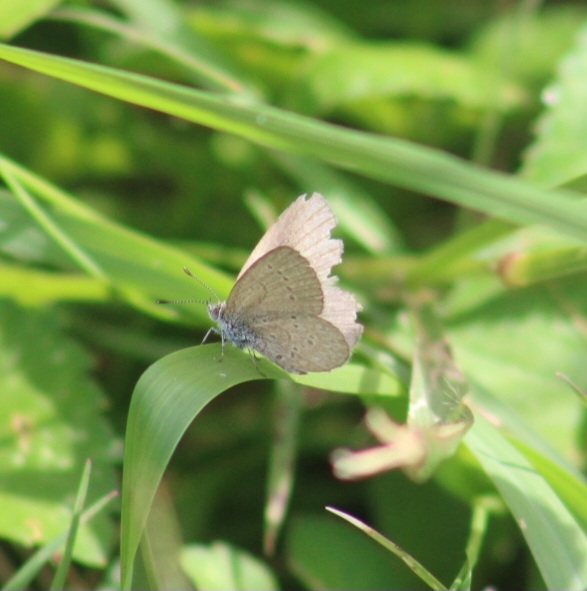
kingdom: Animalia
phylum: Arthropoda
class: Insecta
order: Lepidoptera
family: Lycaenidae
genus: Zizina
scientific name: Zizina otis
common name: Lesser grass blue
